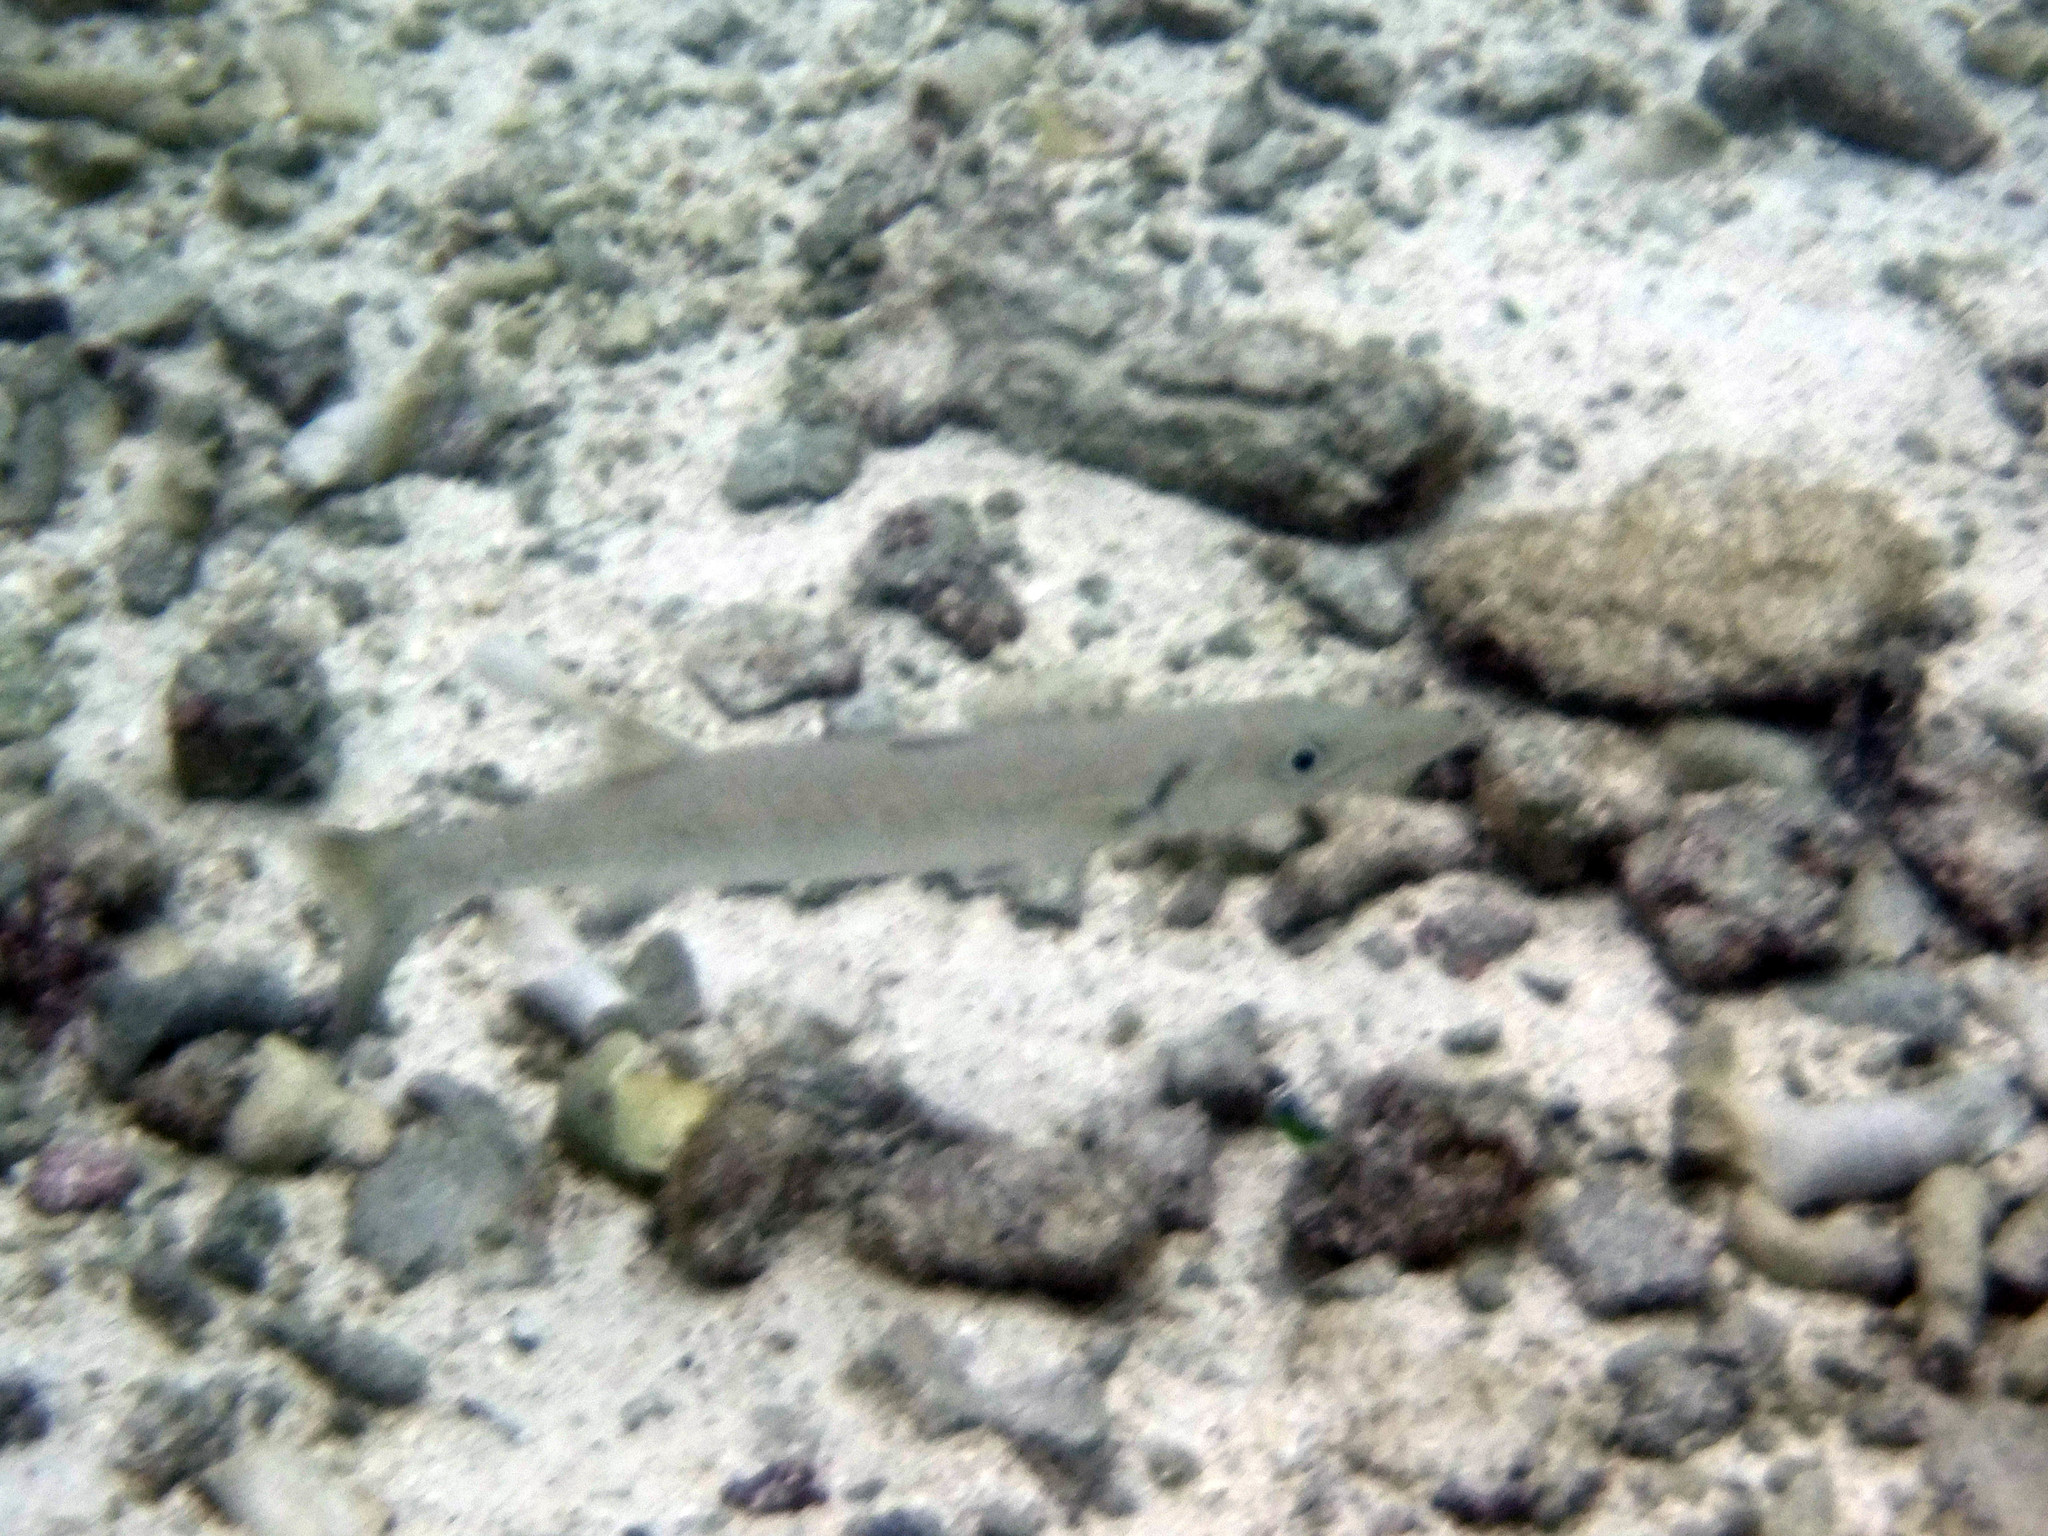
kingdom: Animalia
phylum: Chordata
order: Perciformes
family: Sphyraenidae
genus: Sphyraena
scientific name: Sphyraena barracuda
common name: Great barracuda
